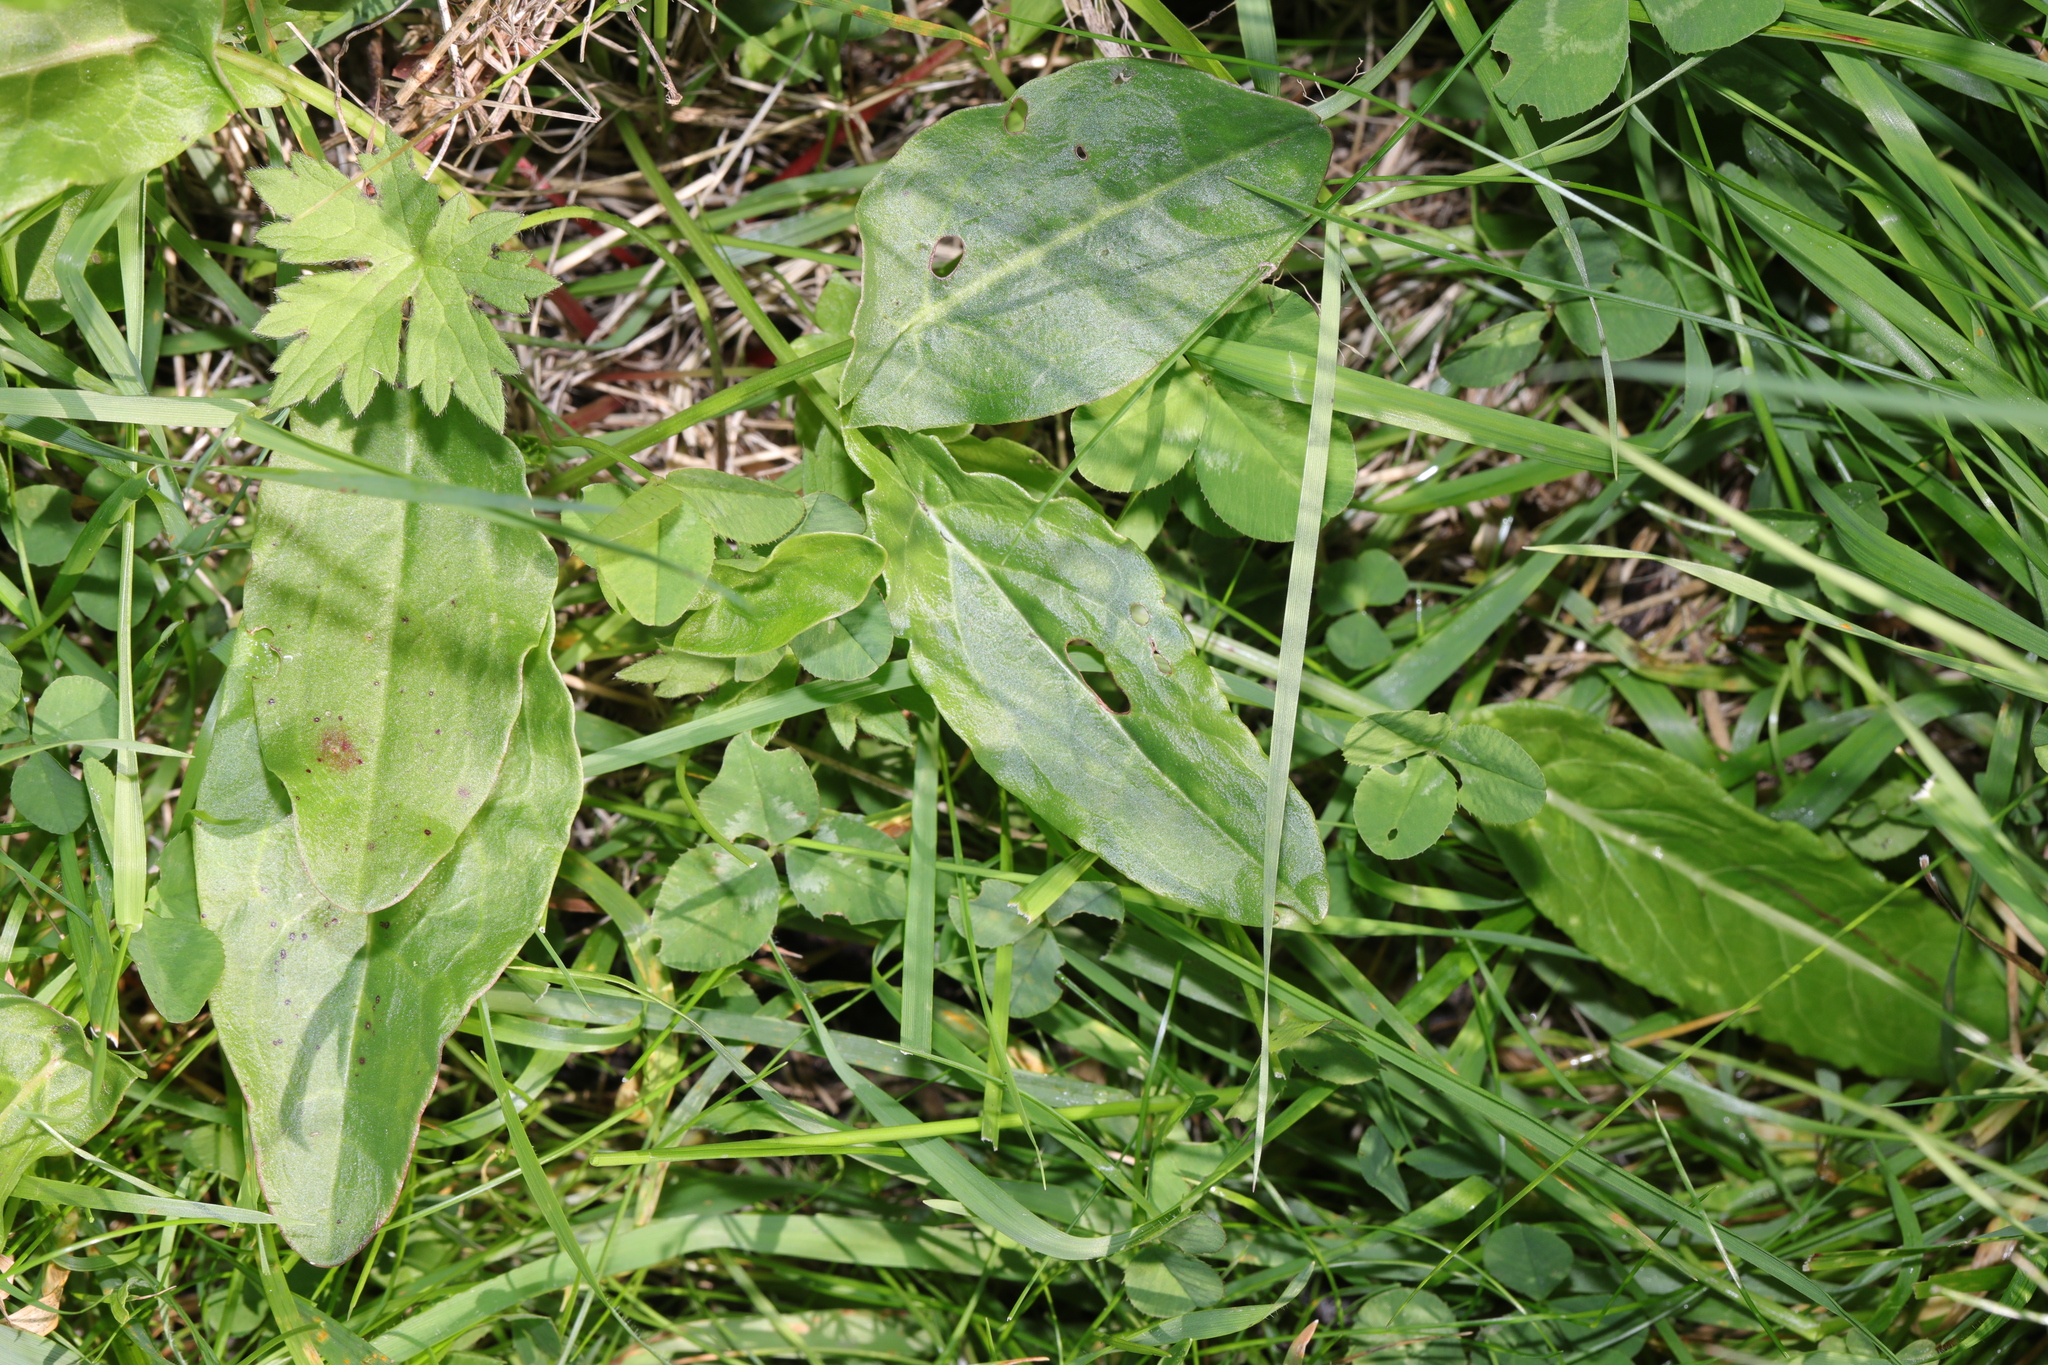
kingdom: Plantae
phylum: Tracheophyta
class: Magnoliopsida
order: Caryophyllales
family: Polygonaceae
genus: Rumex
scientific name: Rumex acetosa
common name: Garden sorrel
